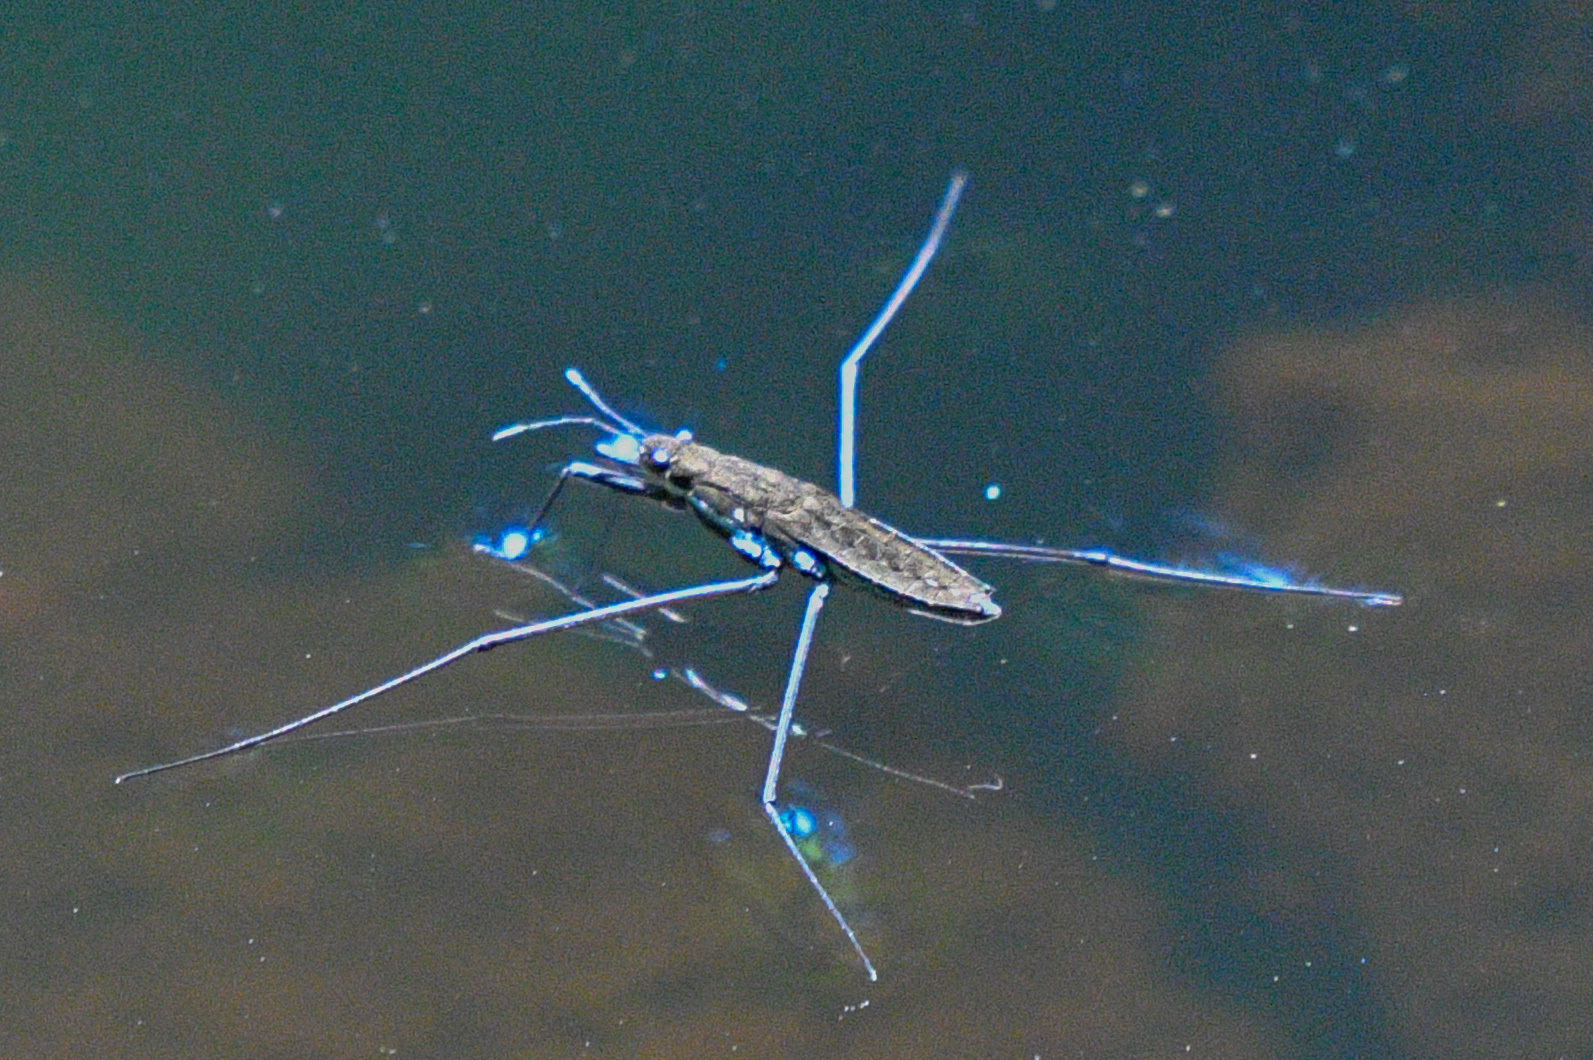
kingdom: Animalia
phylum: Arthropoda
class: Insecta
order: Hemiptera
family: Gerridae
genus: Aquarius
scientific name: Aquarius remigis
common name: Common water strider
